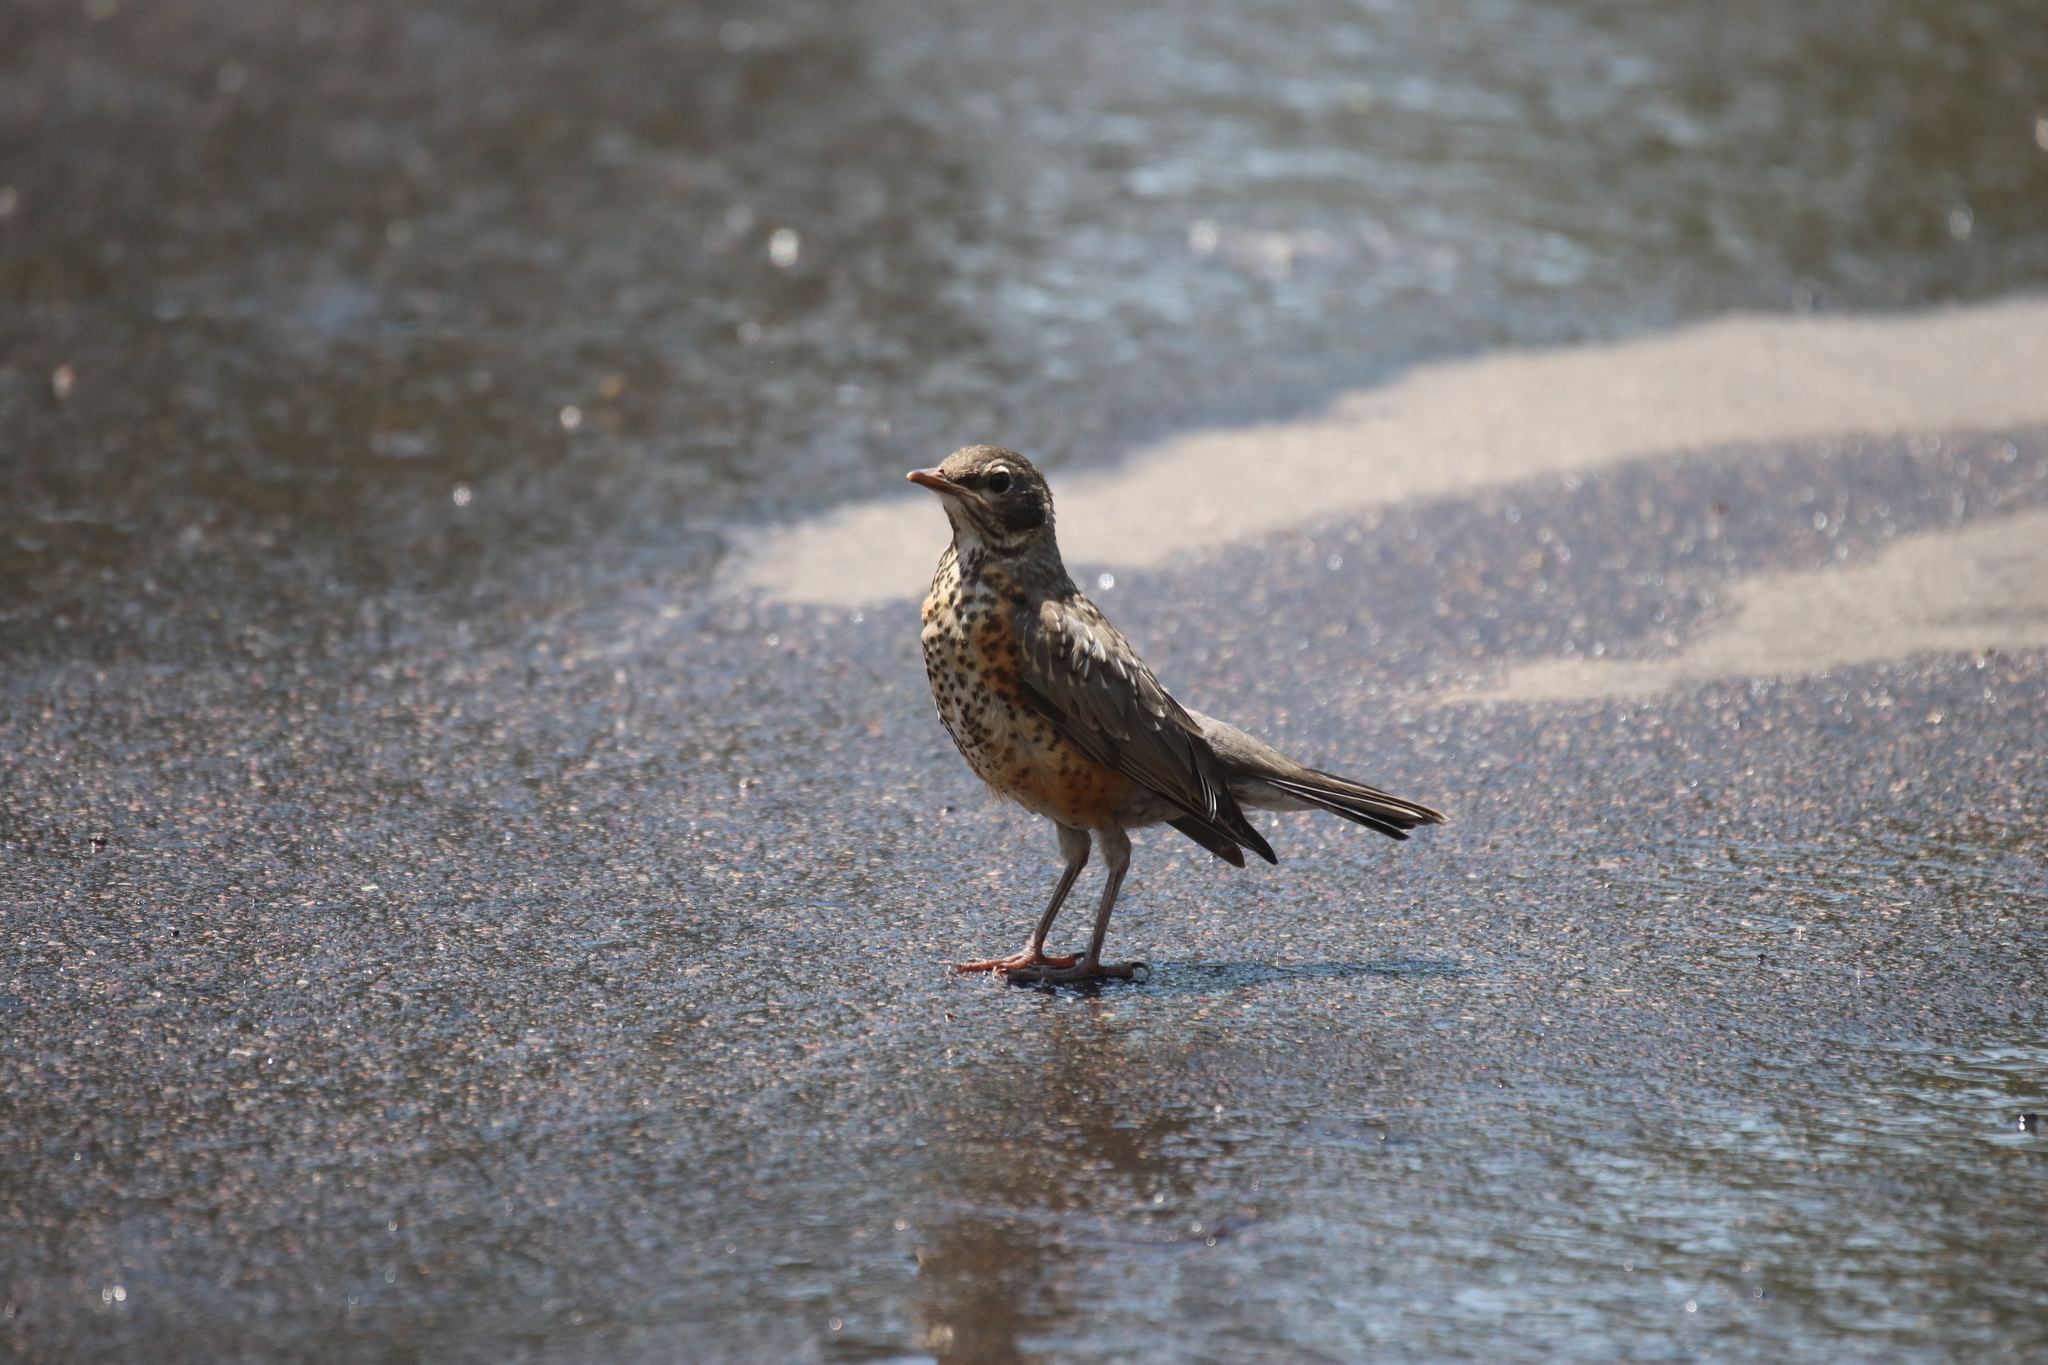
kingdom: Animalia
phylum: Chordata
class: Aves
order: Passeriformes
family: Turdidae
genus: Turdus
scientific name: Turdus migratorius
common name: American robin
